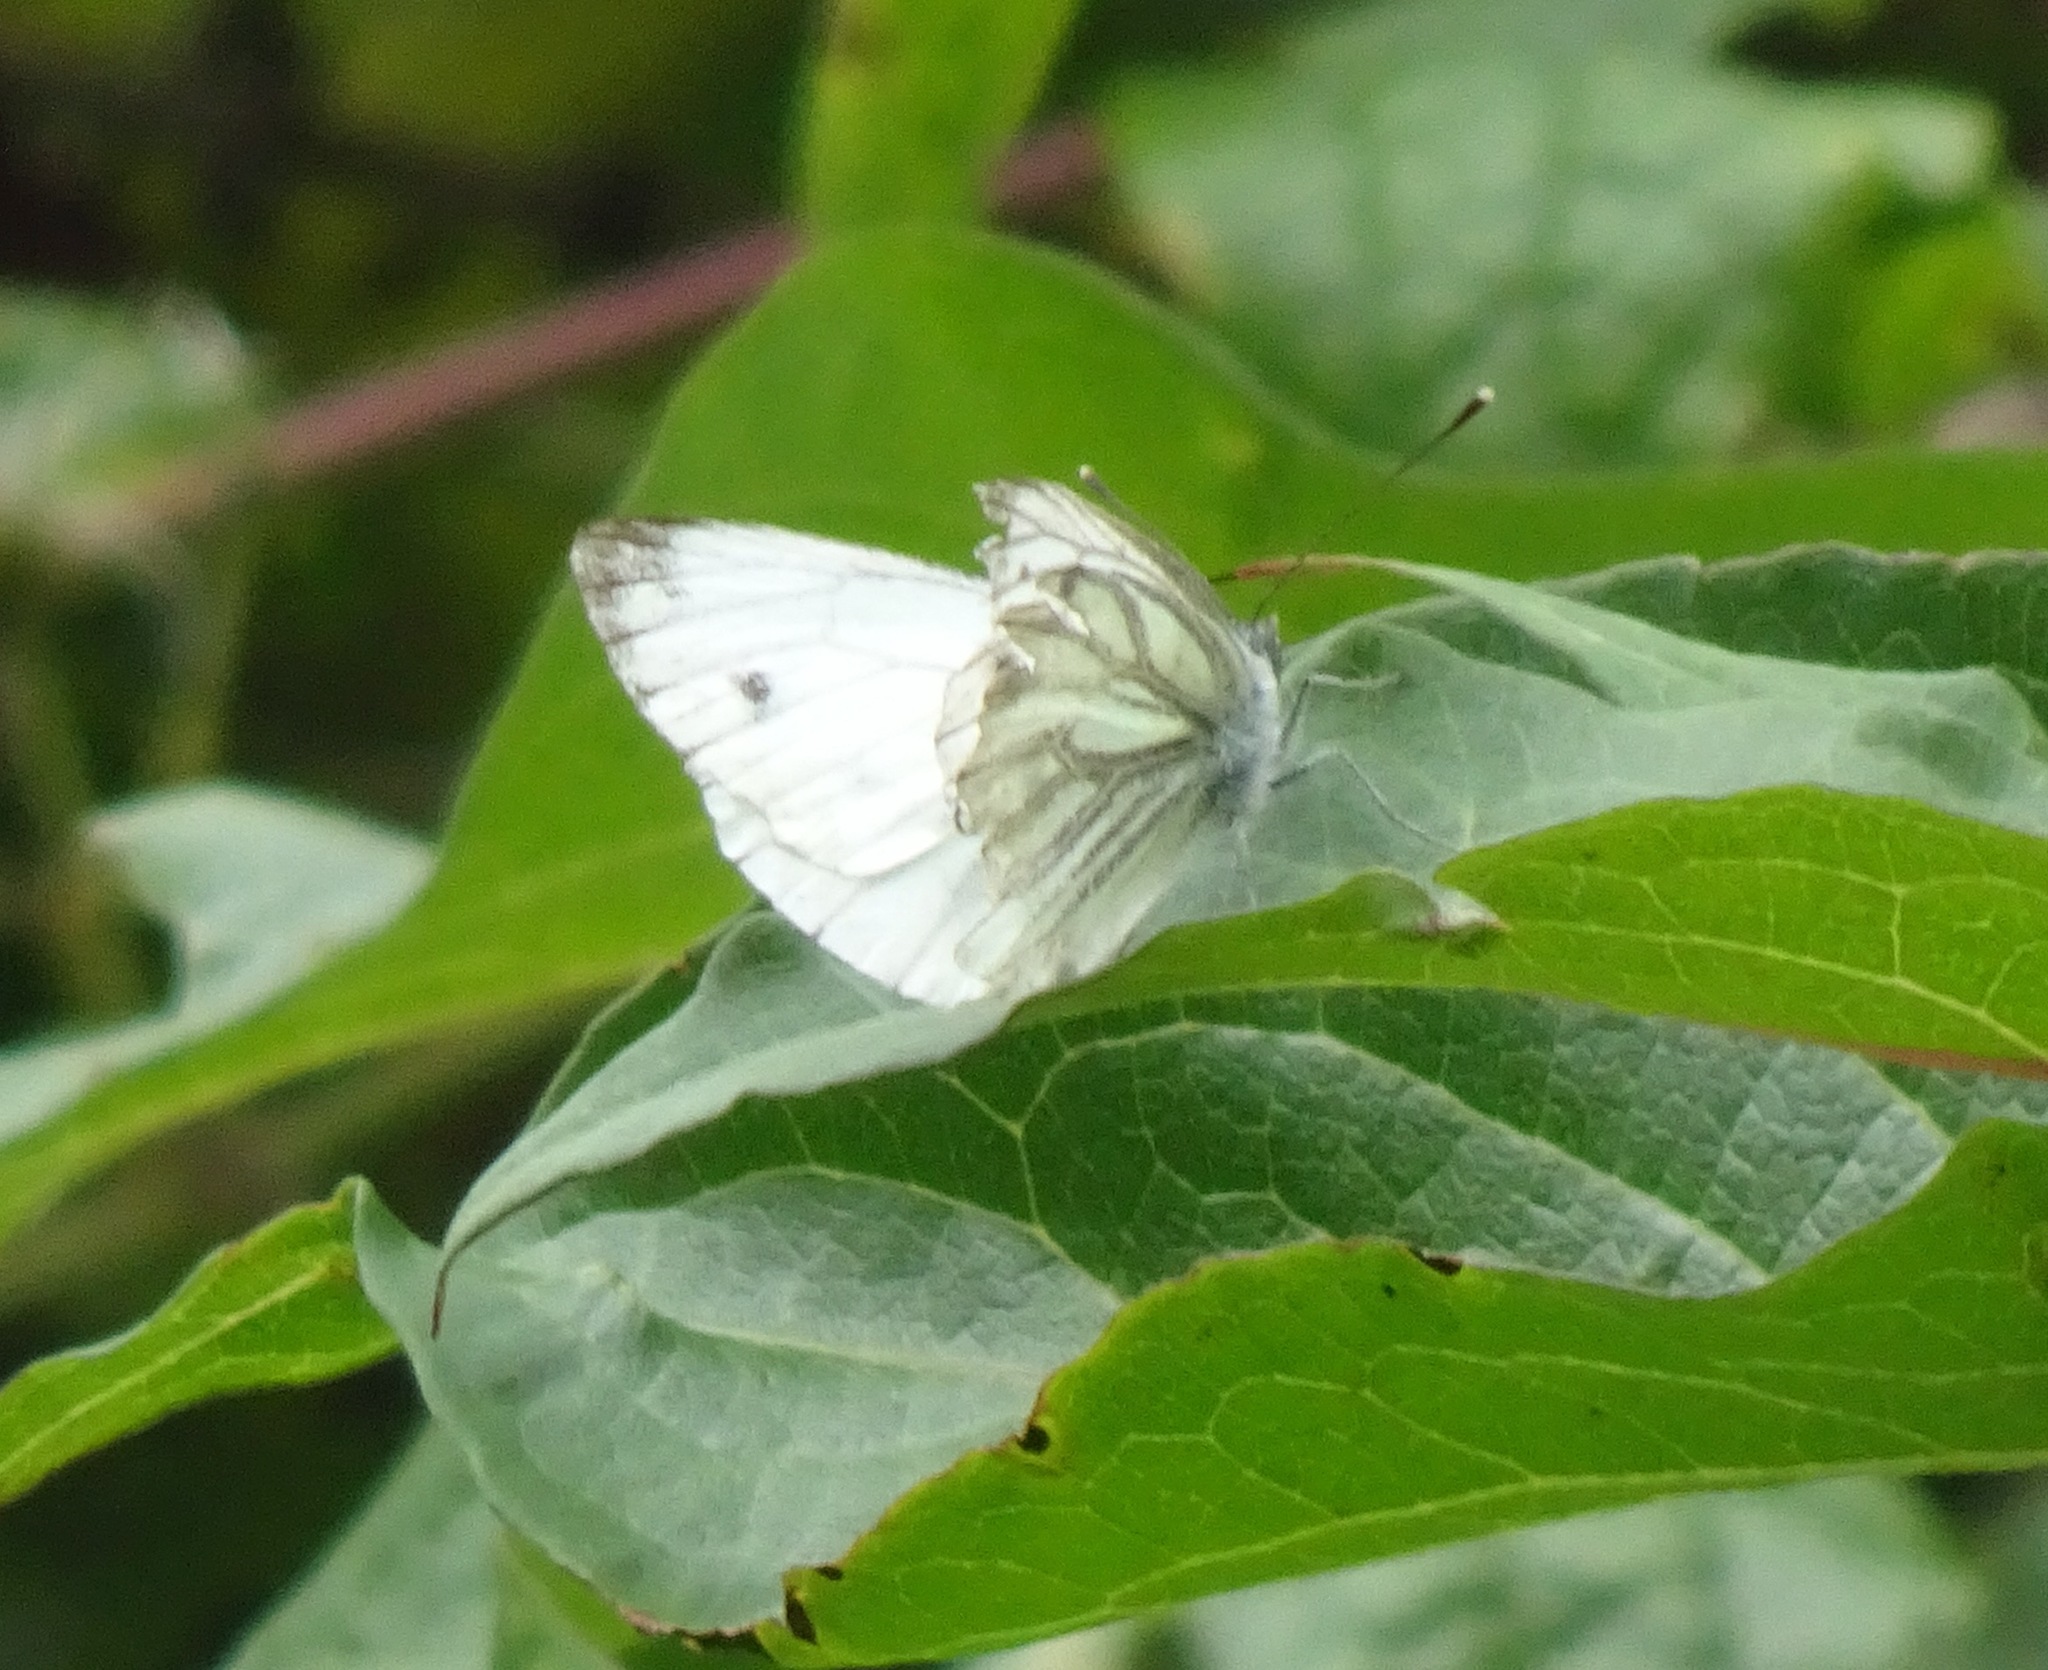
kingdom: Animalia
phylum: Arthropoda
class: Insecta
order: Lepidoptera
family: Pieridae
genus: Pieris
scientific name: Pieris napi
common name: Green-veined white
